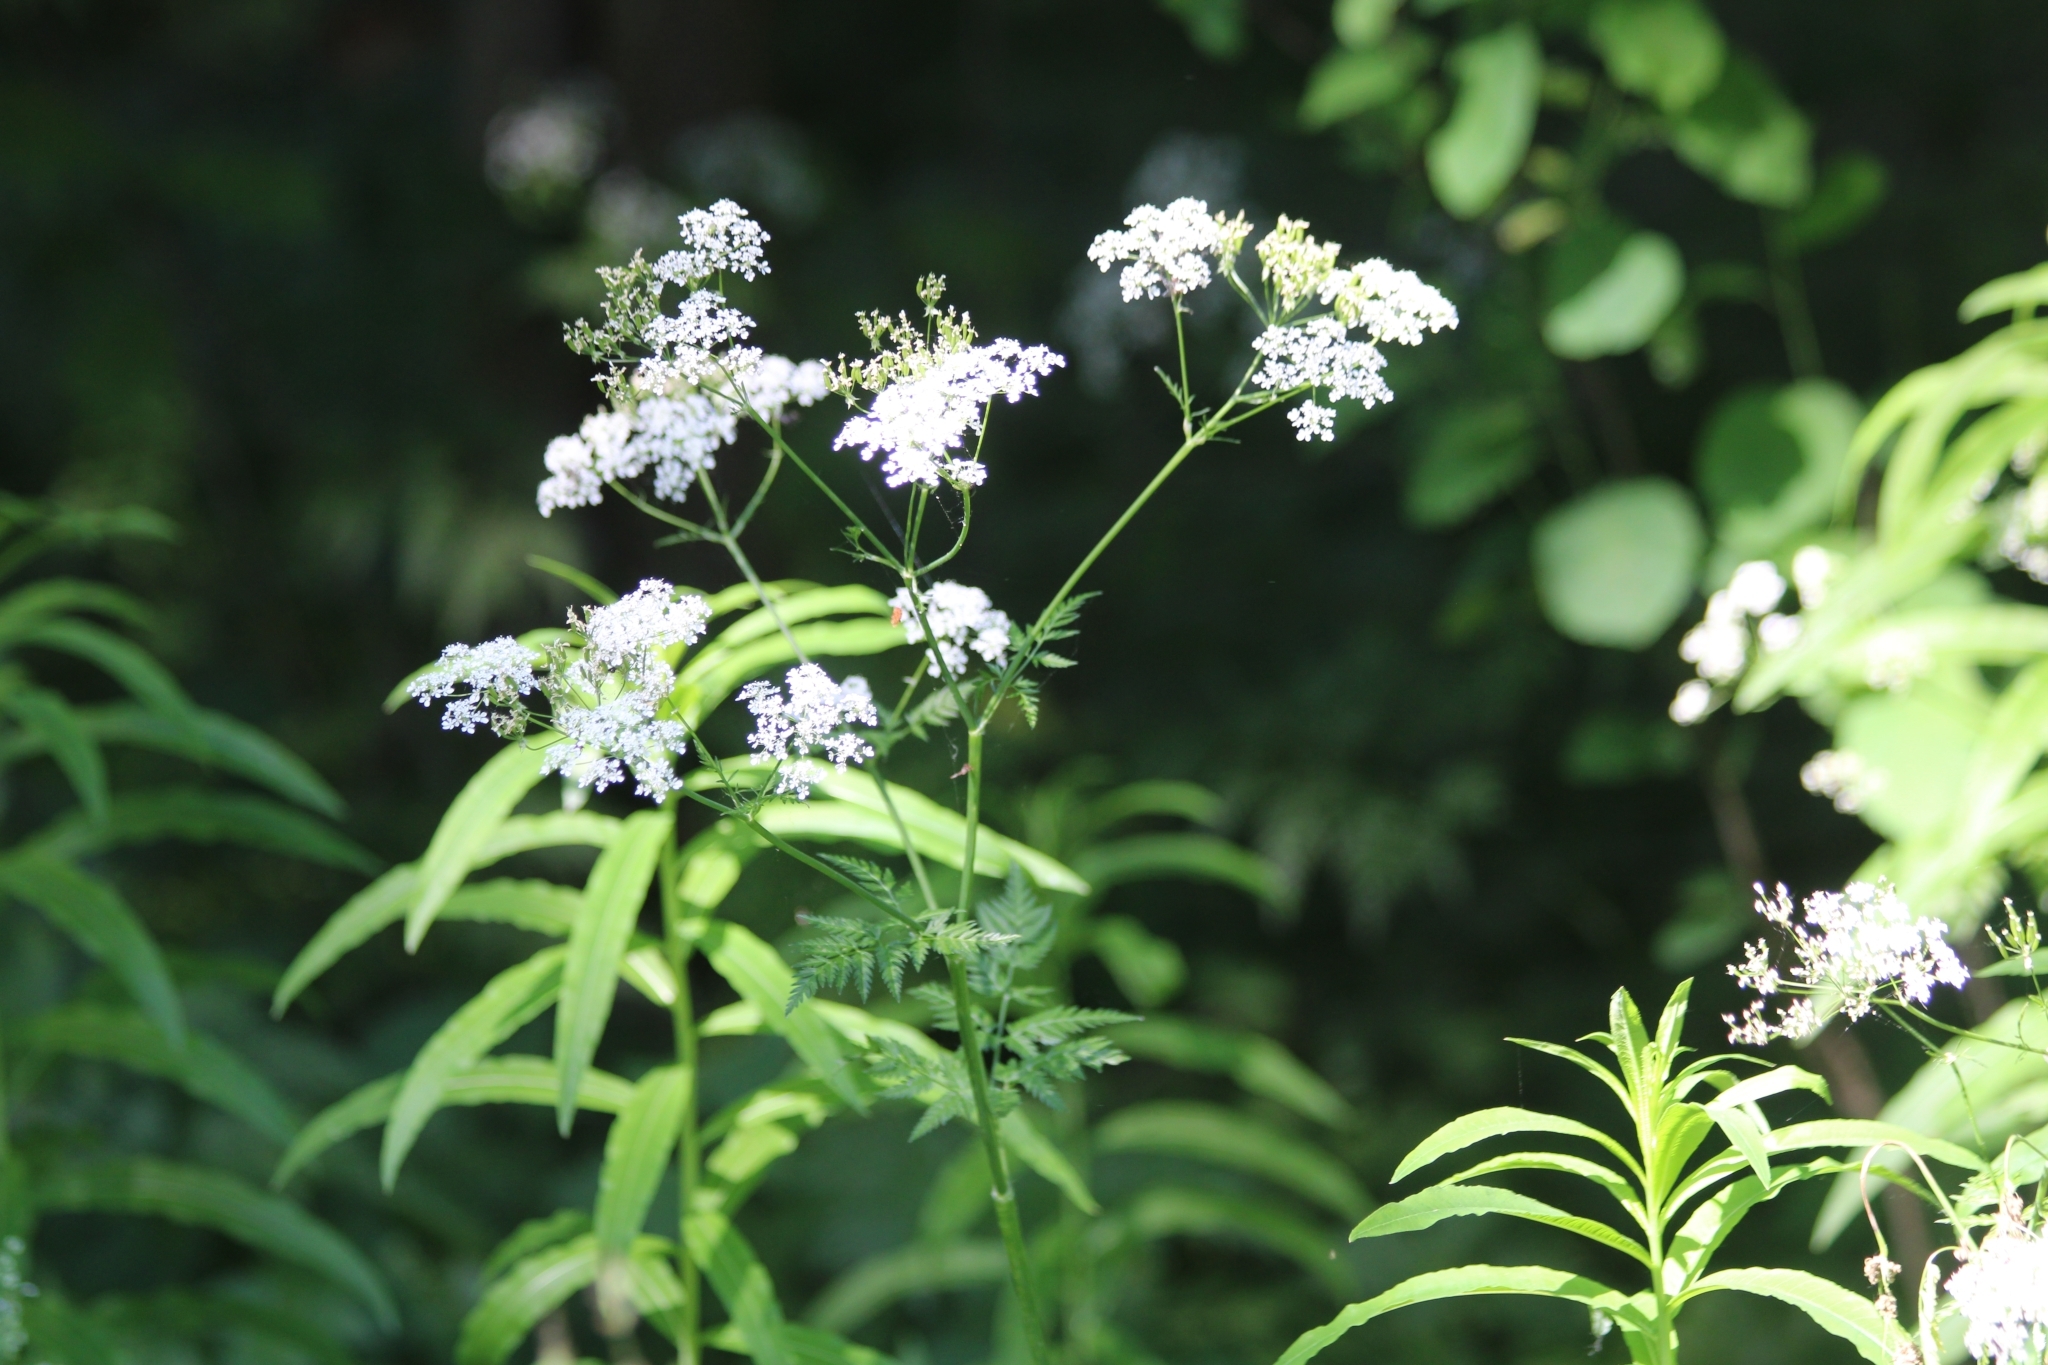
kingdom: Plantae
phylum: Tracheophyta
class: Magnoliopsida
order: Apiales
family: Apiaceae
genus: Anthriscus
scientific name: Anthriscus sylvestris
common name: Cow parsley
